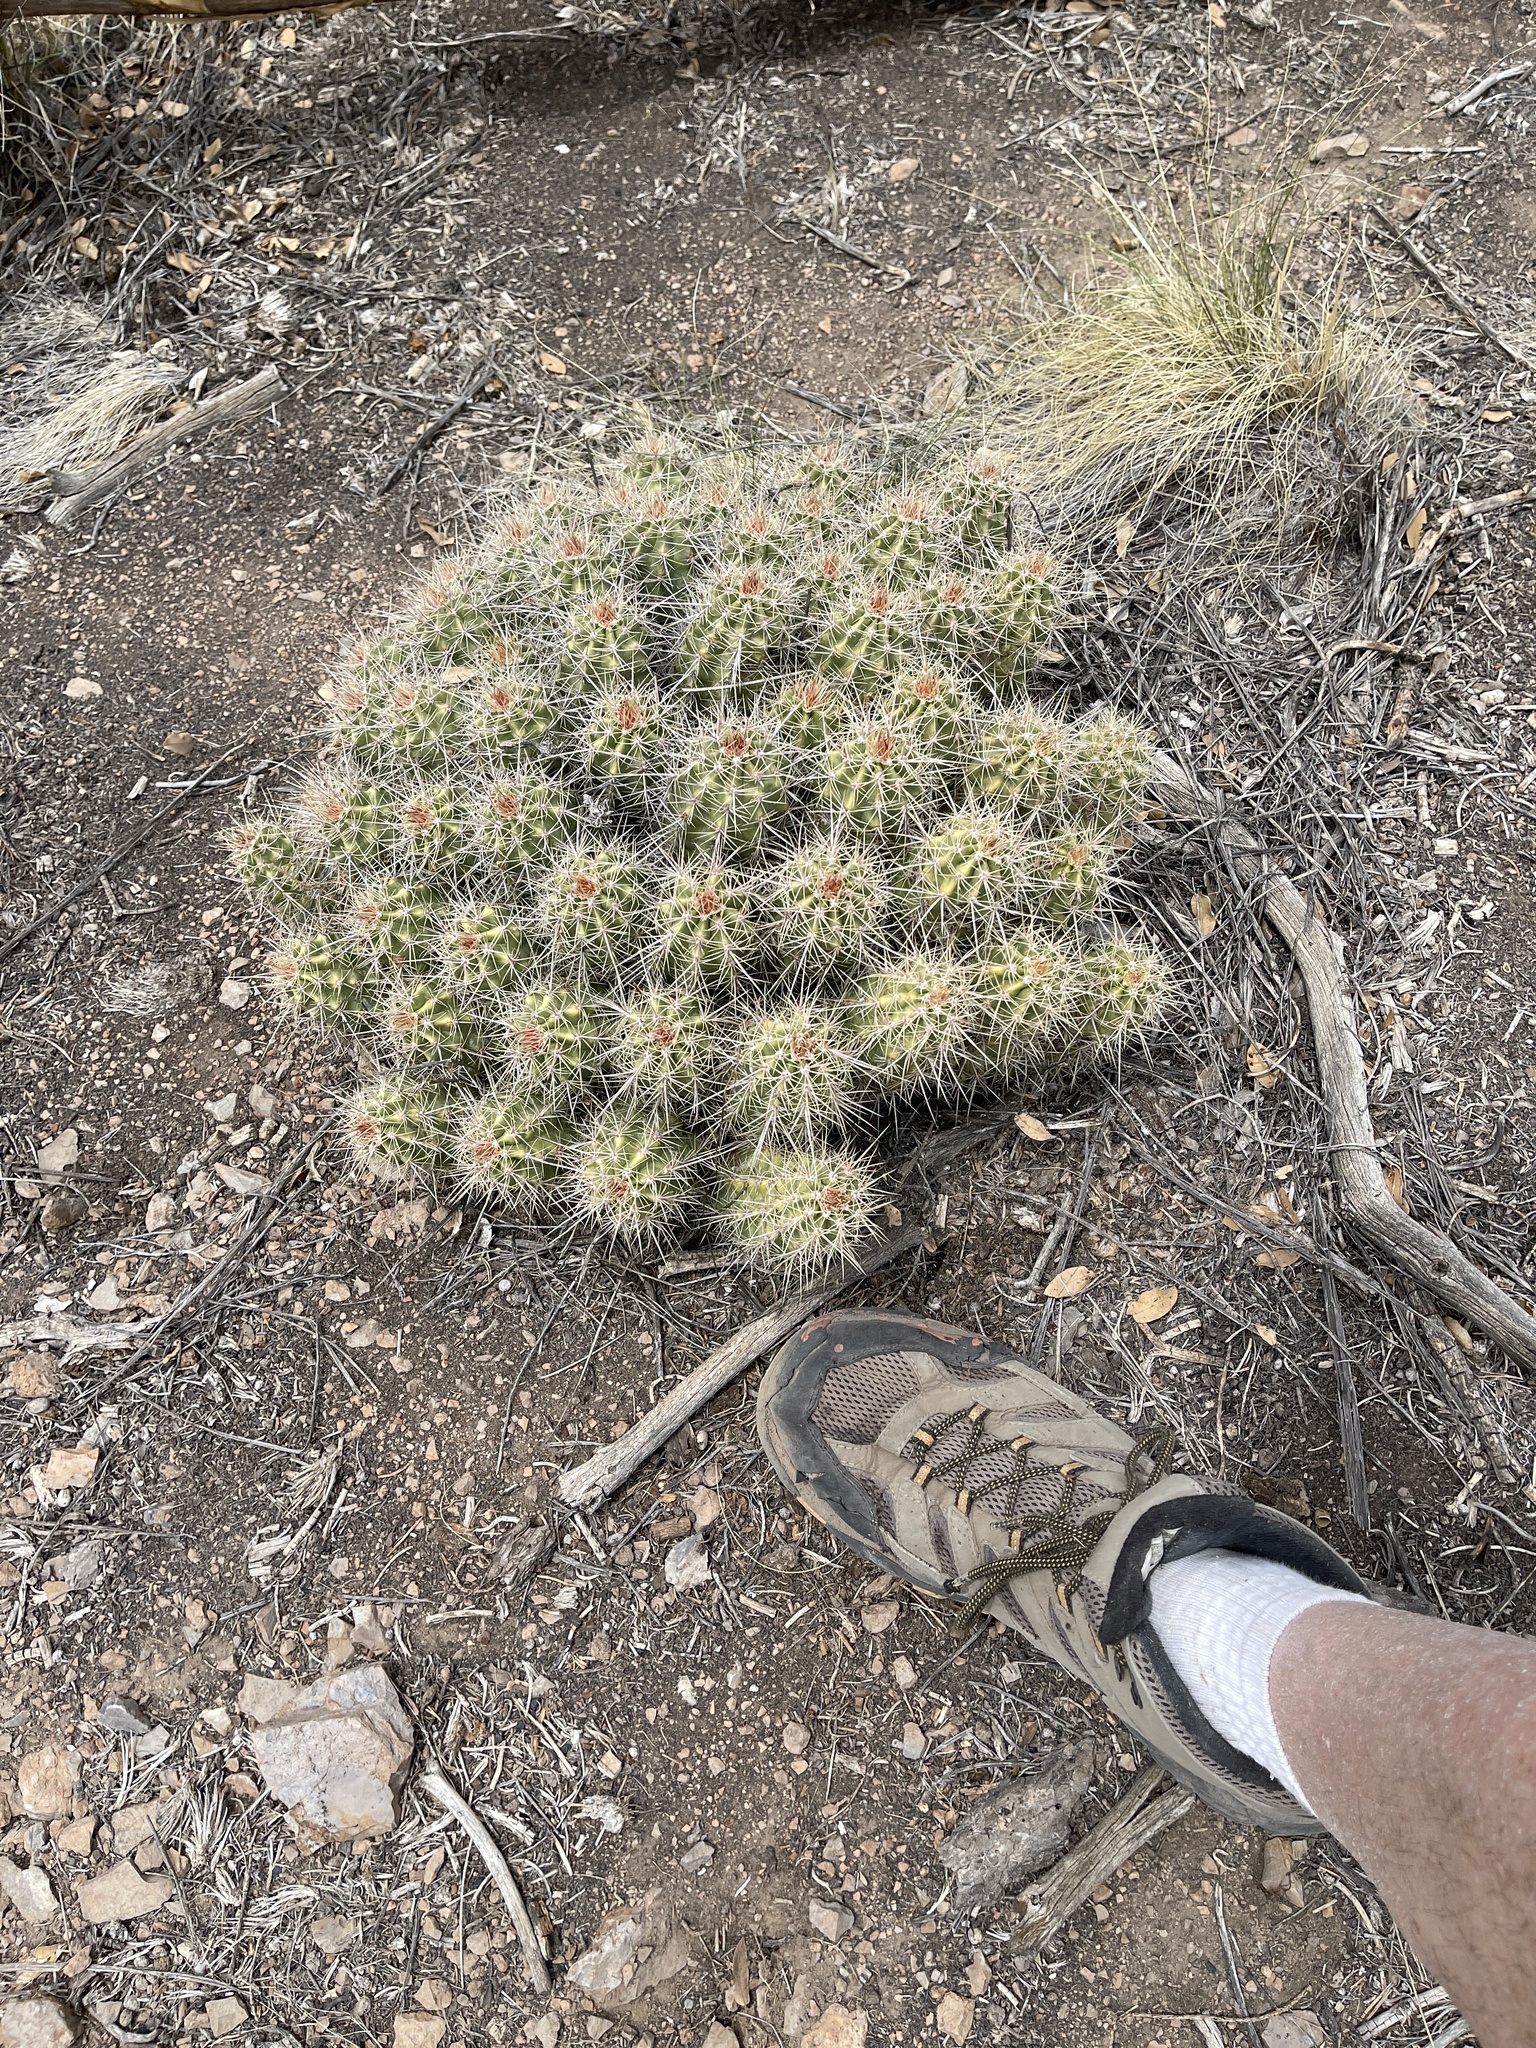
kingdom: Plantae
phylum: Tracheophyta
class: Magnoliopsida
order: Caryophyllales
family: Cactaceae
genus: Echinocereus
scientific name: Echinocereus coccineus
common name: Scarlet hedgehog cactus
